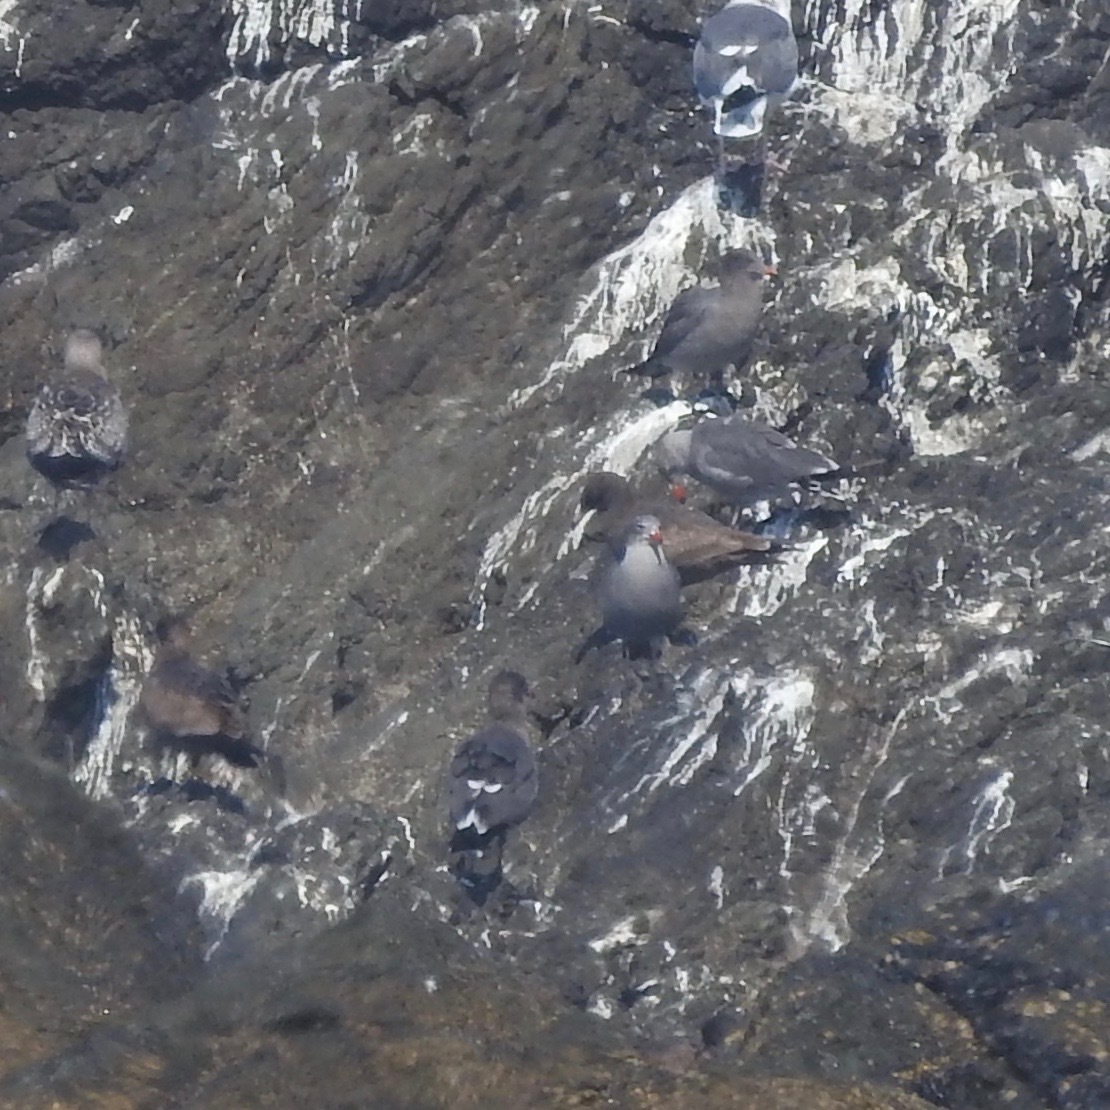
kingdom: Animalia
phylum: Chordata
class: Aves
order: Charadriiformes
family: Laridae
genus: Larus
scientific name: Larus heermanni
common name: Heermann's gull
